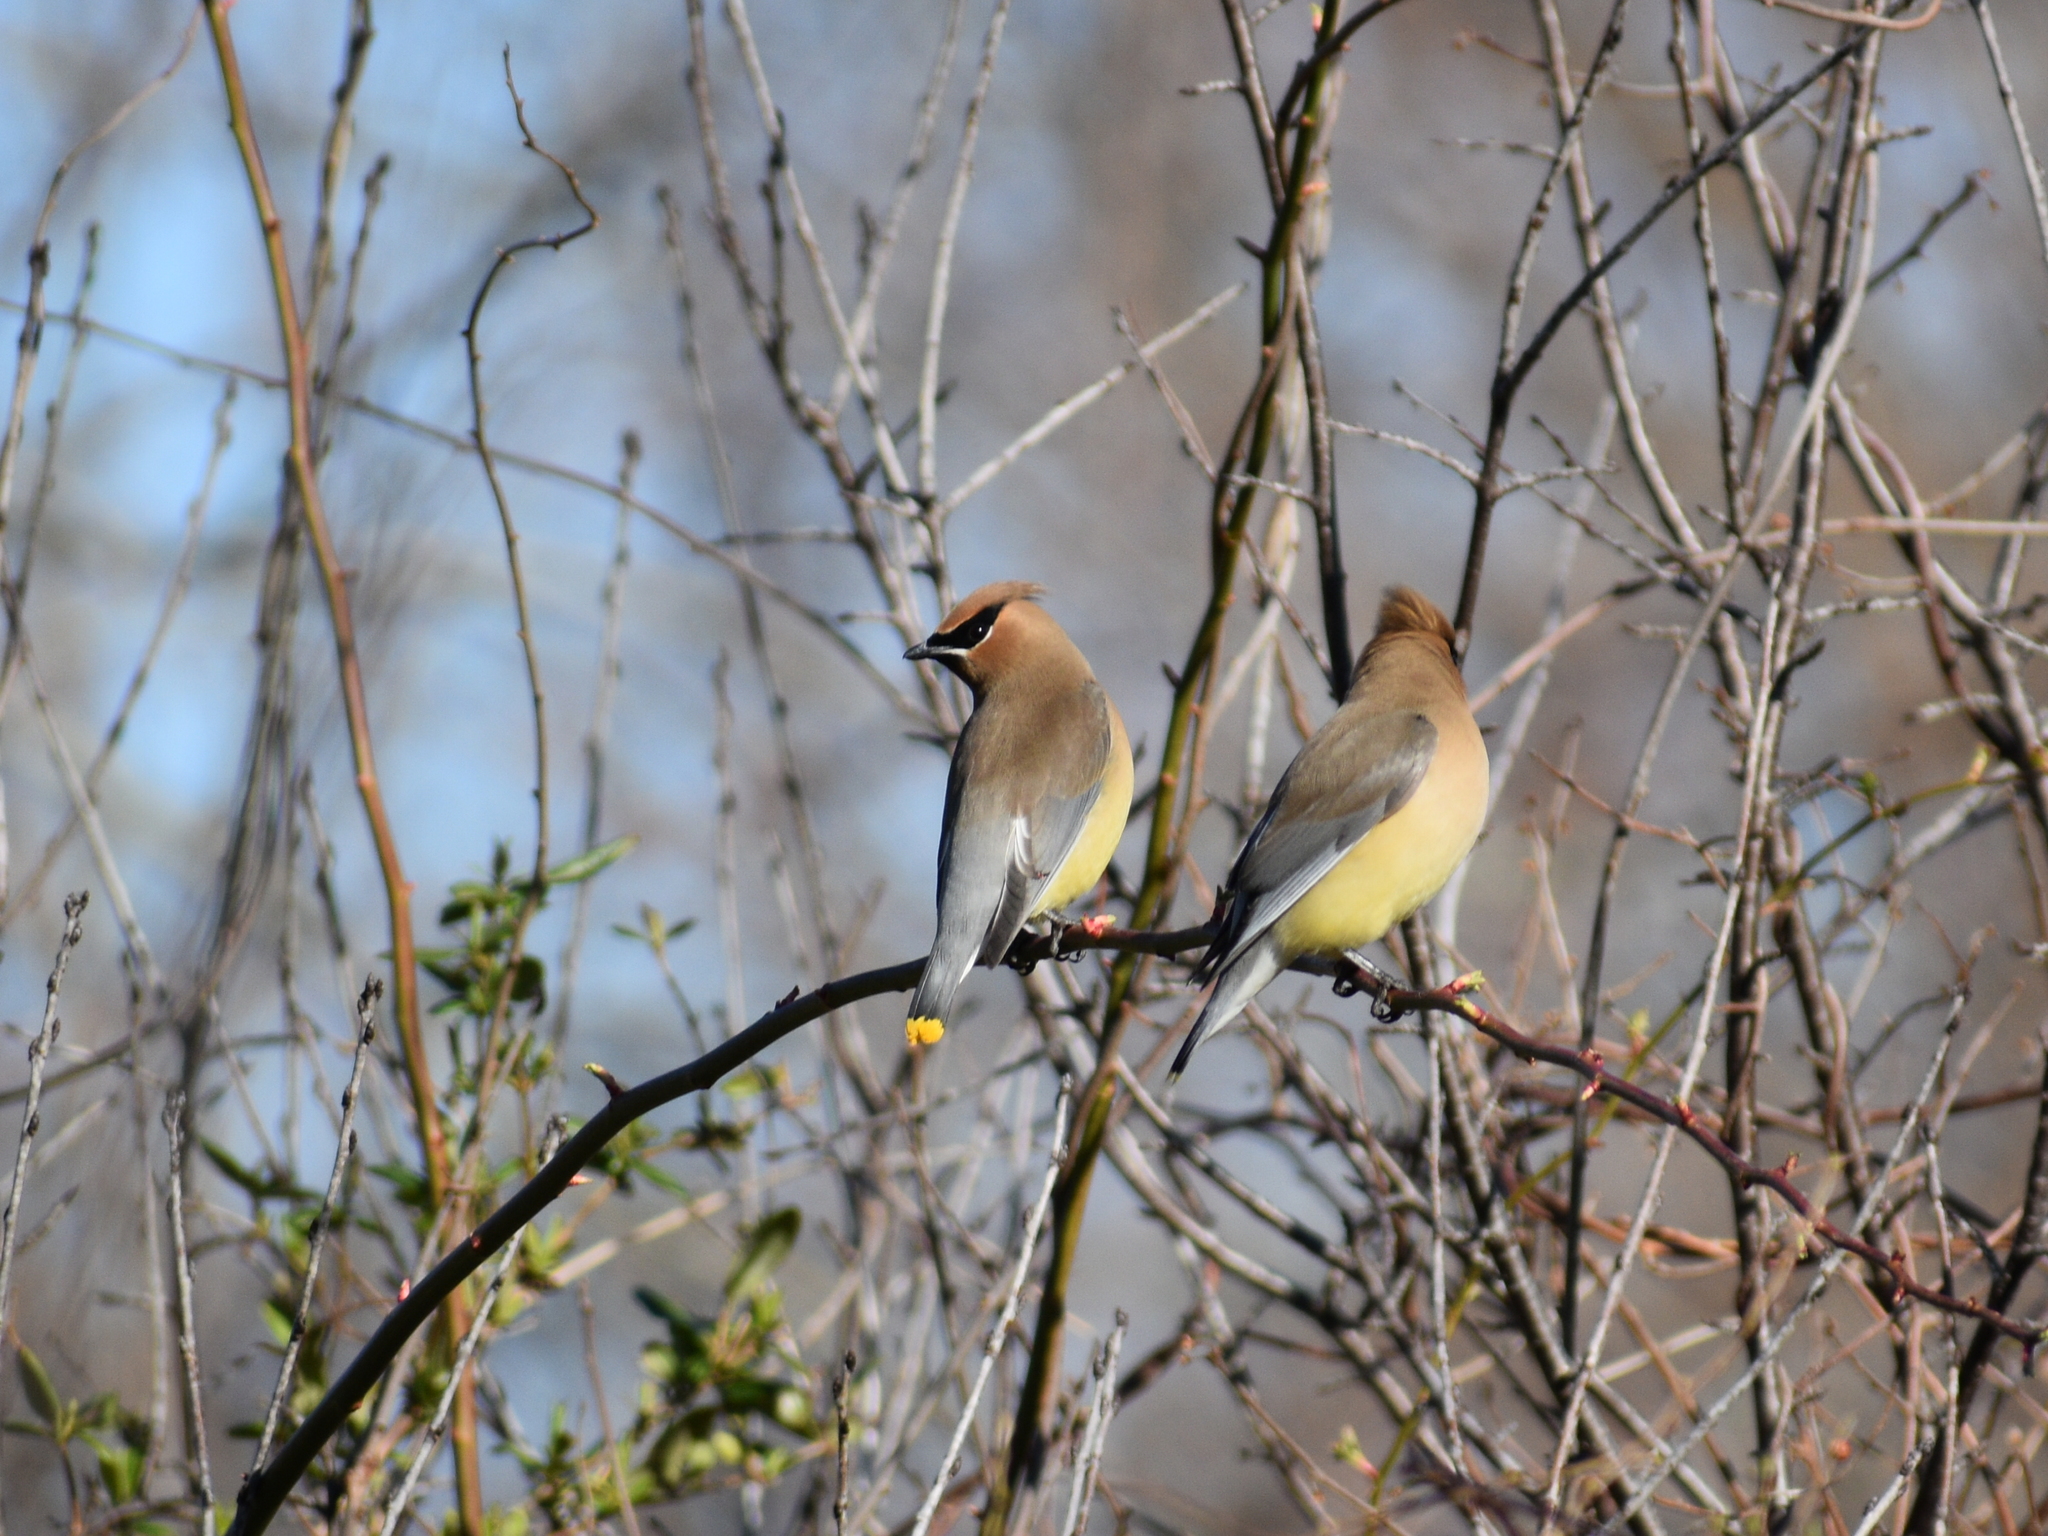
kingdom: Animalia
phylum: Chordata
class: Aves
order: Passeriformes
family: Bombycillidae
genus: Bombycilla
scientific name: Bombycilla cedrorum
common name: Cedar waxwing
